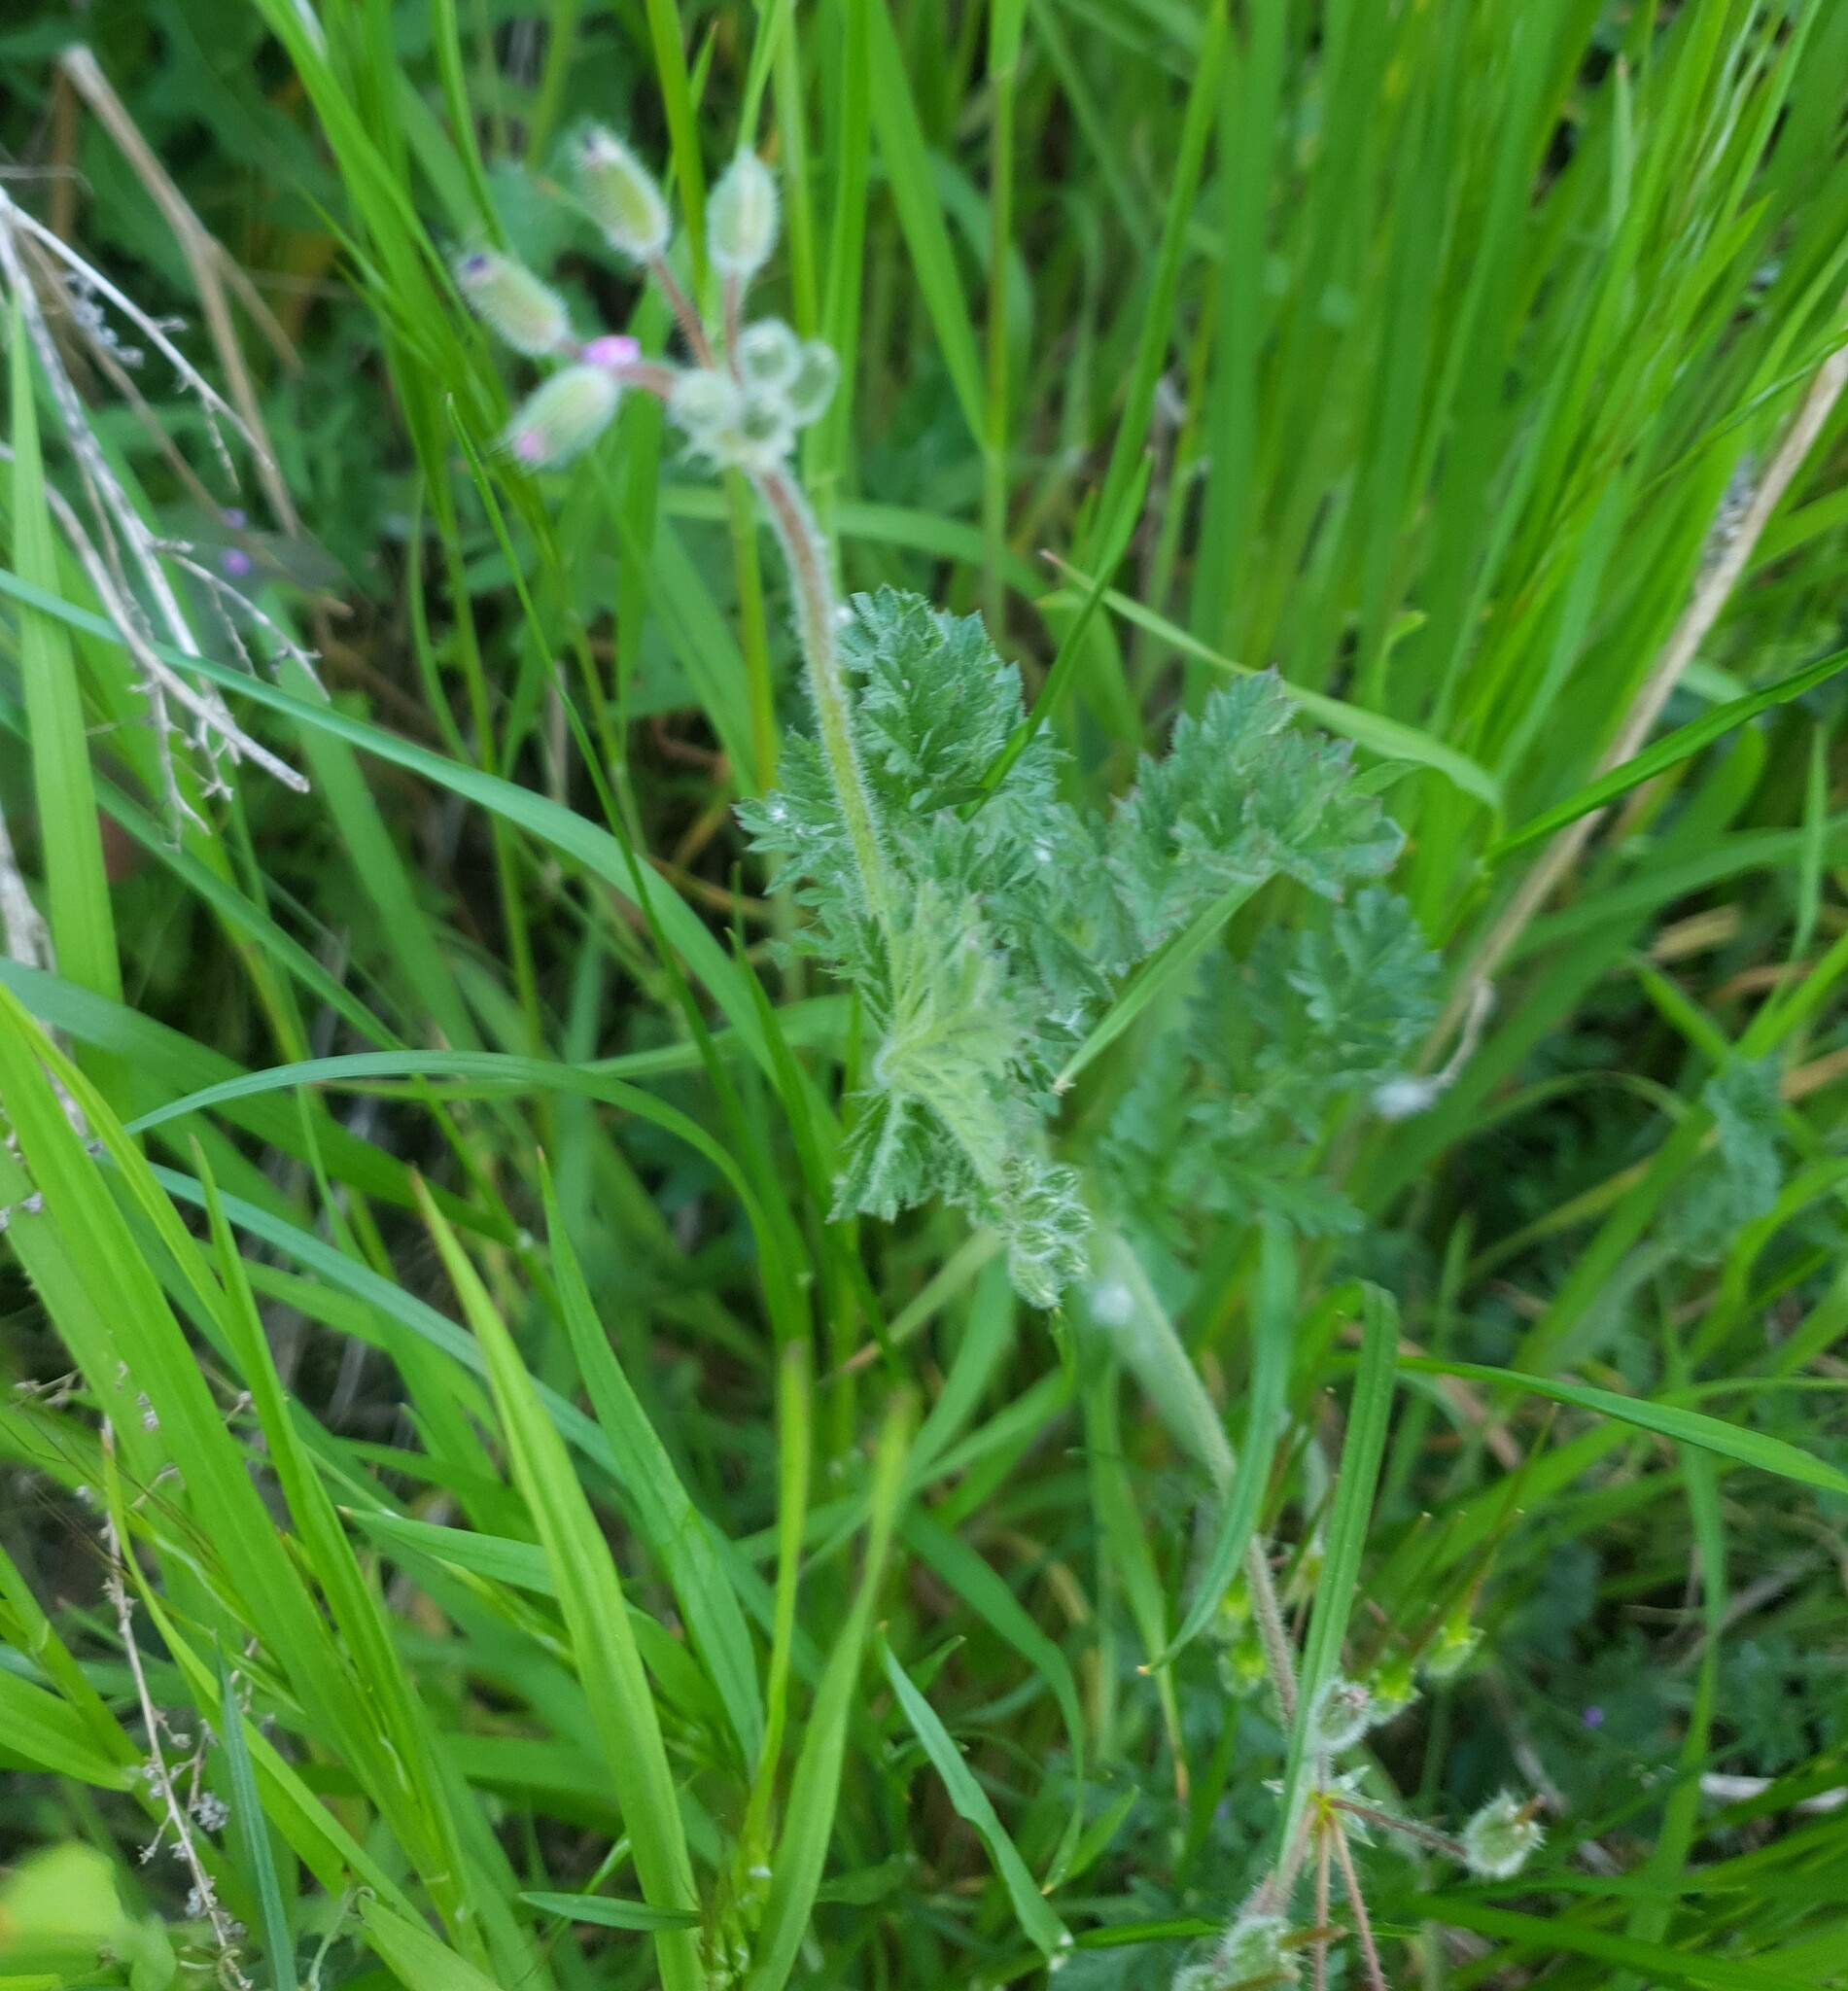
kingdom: Plantae
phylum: Tracheophyta
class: Magnoliopsida
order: Geraniales
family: Geraniaceae
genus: Erodium
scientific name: Erodium cicutarium
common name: Common stork's-bill
